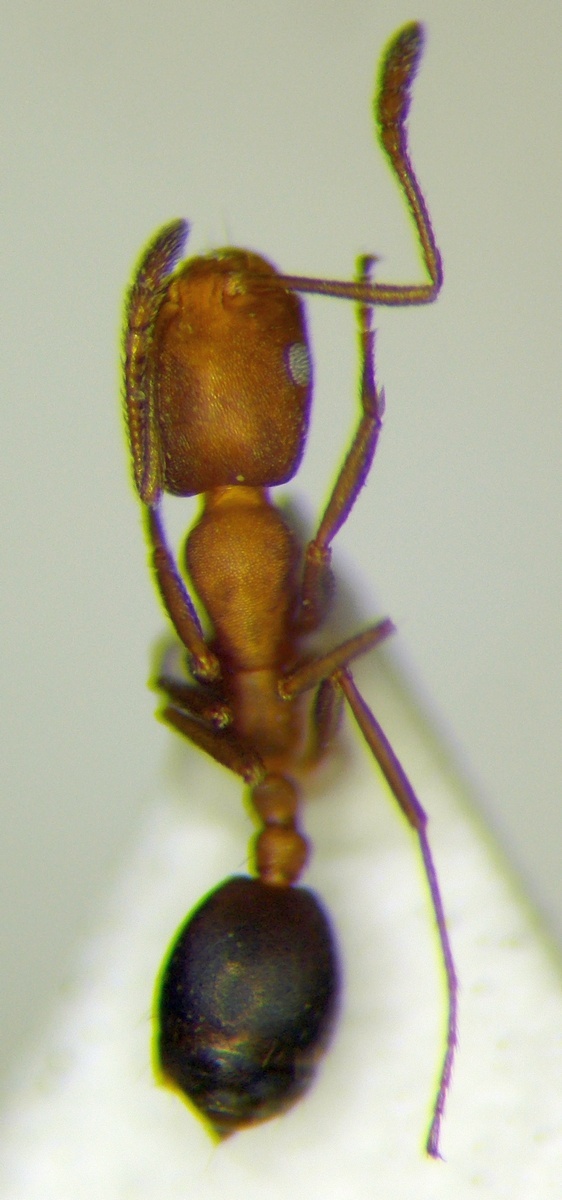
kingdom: Animalia
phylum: Arthropoda
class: Insecta
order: Hymenoptera
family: Formicidae
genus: Monomorium
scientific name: Monomorium bicolor
